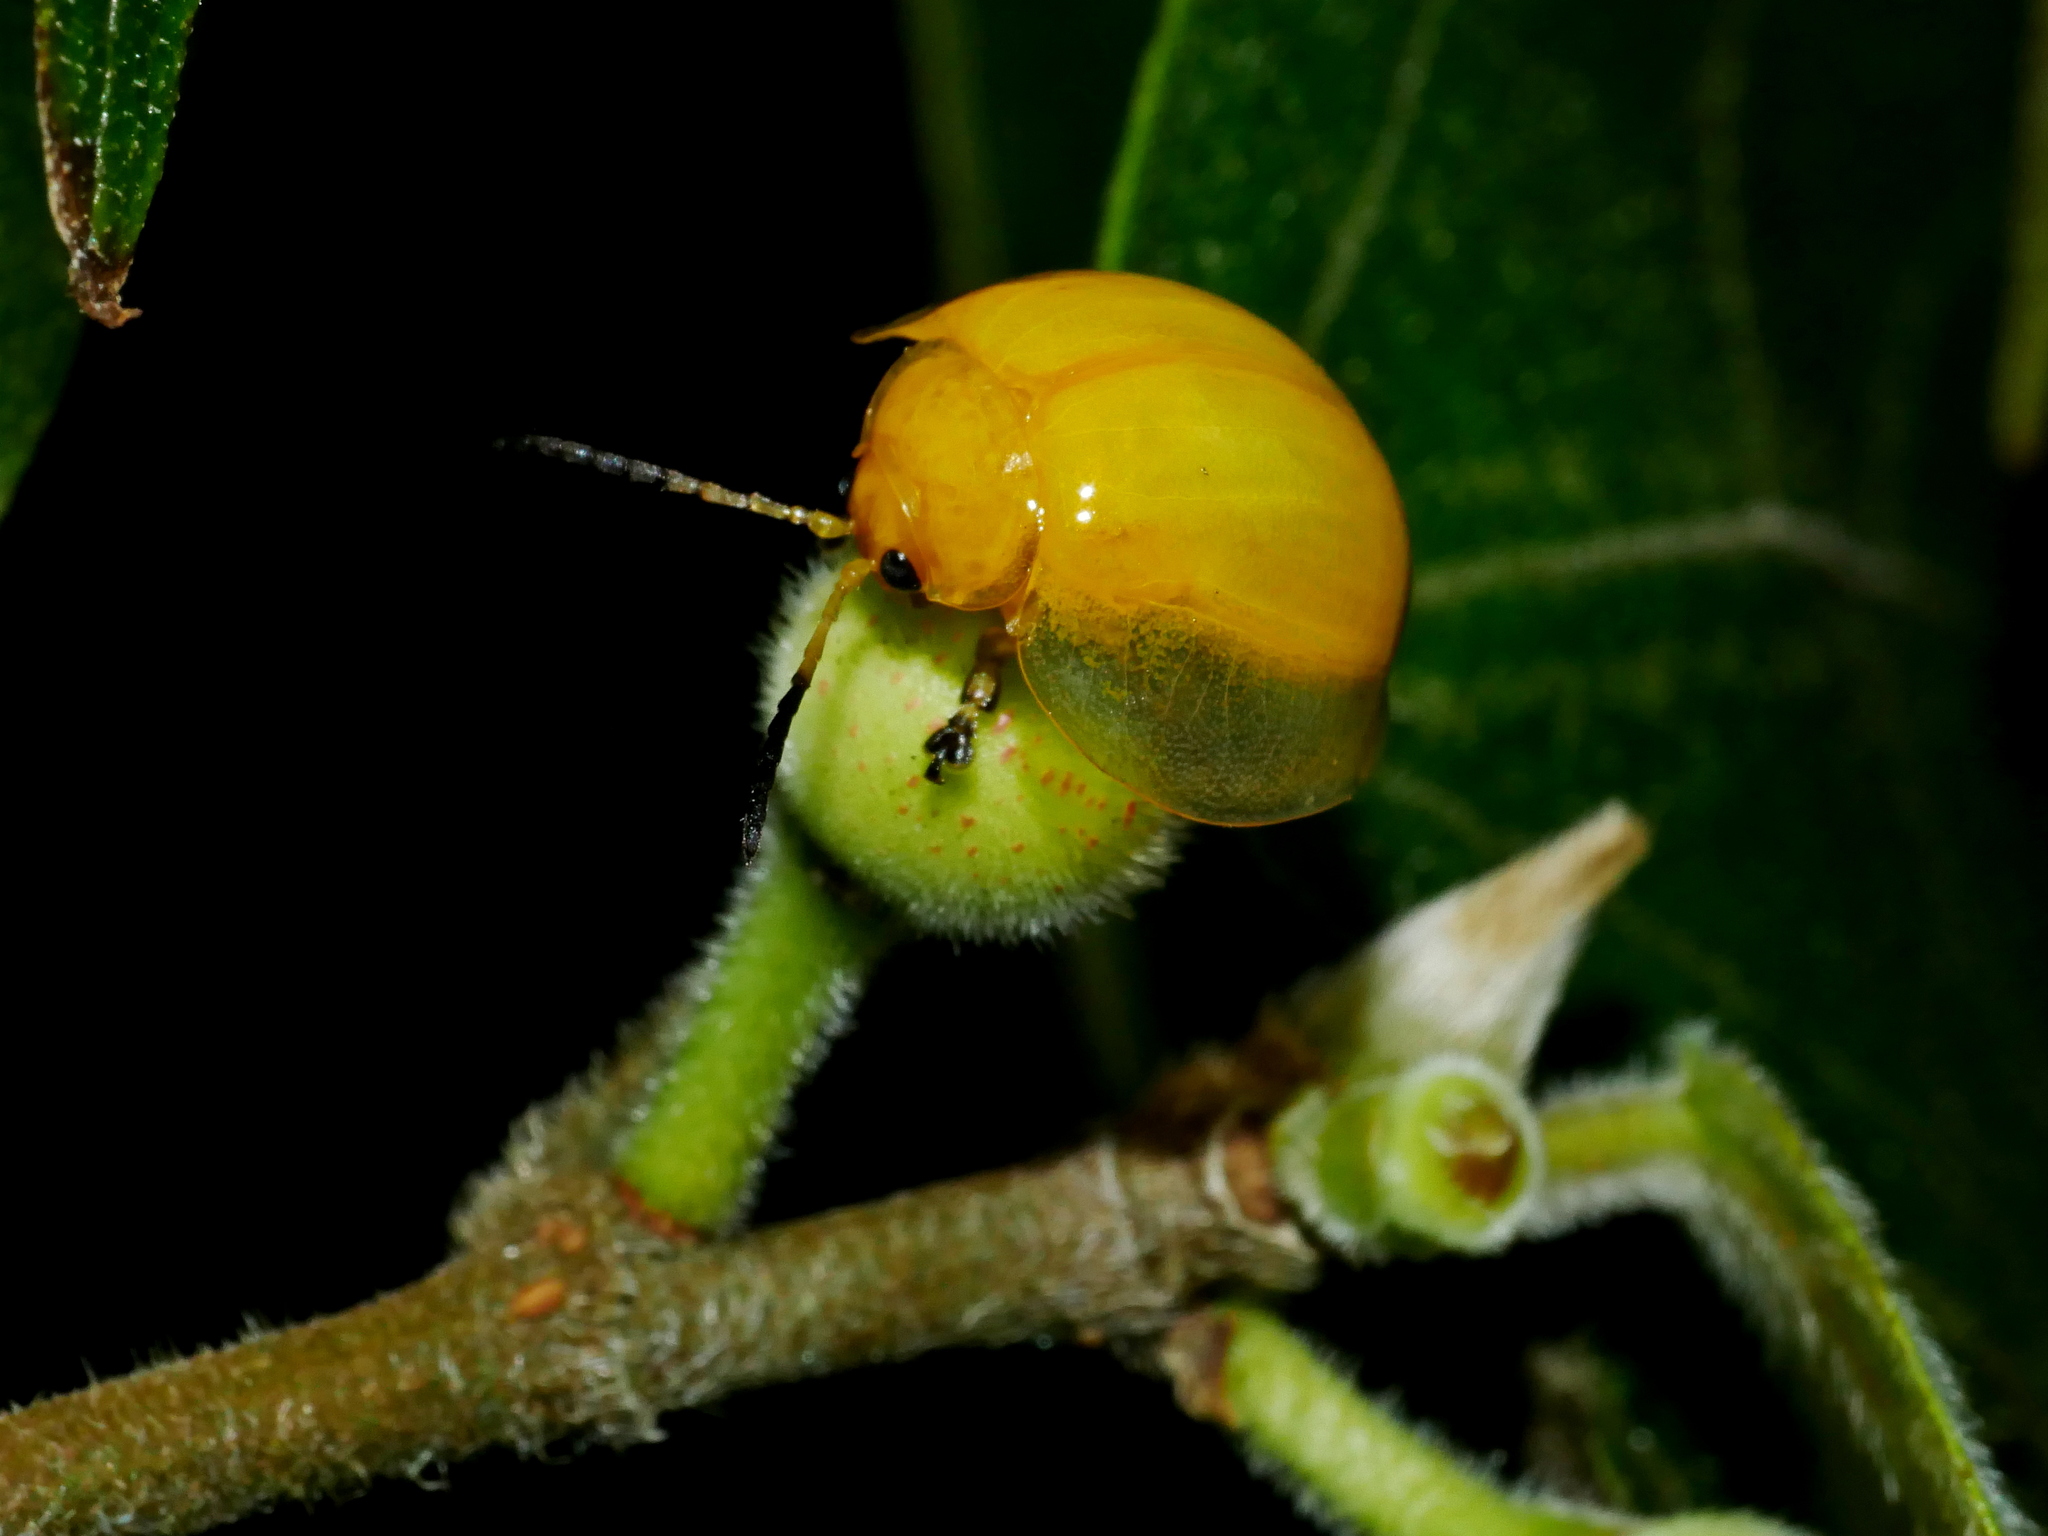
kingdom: Animalia
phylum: Arthropoda
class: Insecta
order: Coleoptera
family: Chrysomelidae
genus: Oides
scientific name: Oides epipleuralis
